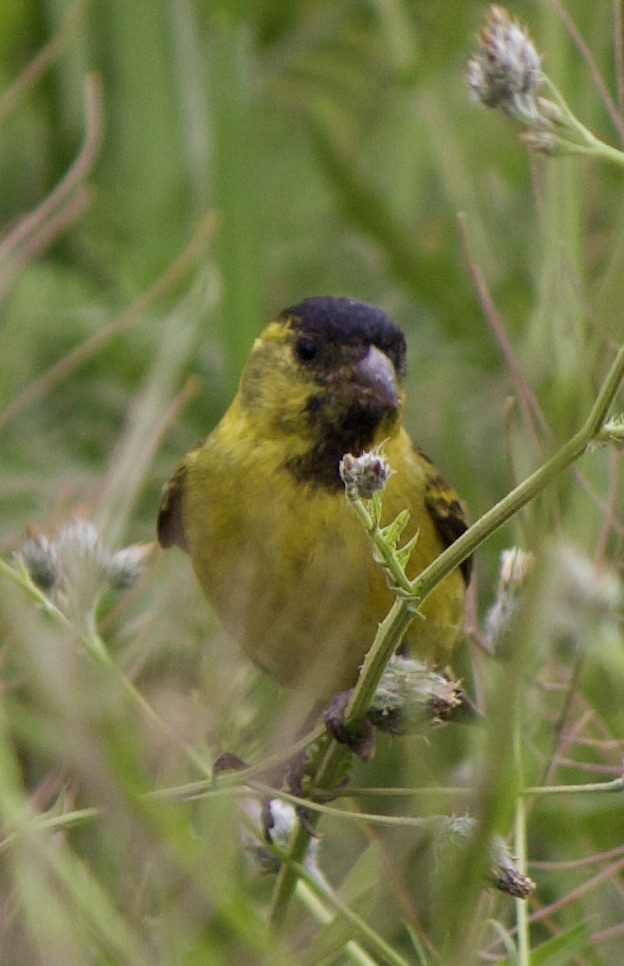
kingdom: Animalia
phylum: Chordata
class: Aves
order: Passeriformes
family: Fringillidae
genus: Spinus
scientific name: Spinus barbatus
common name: Black-chinned siskin
